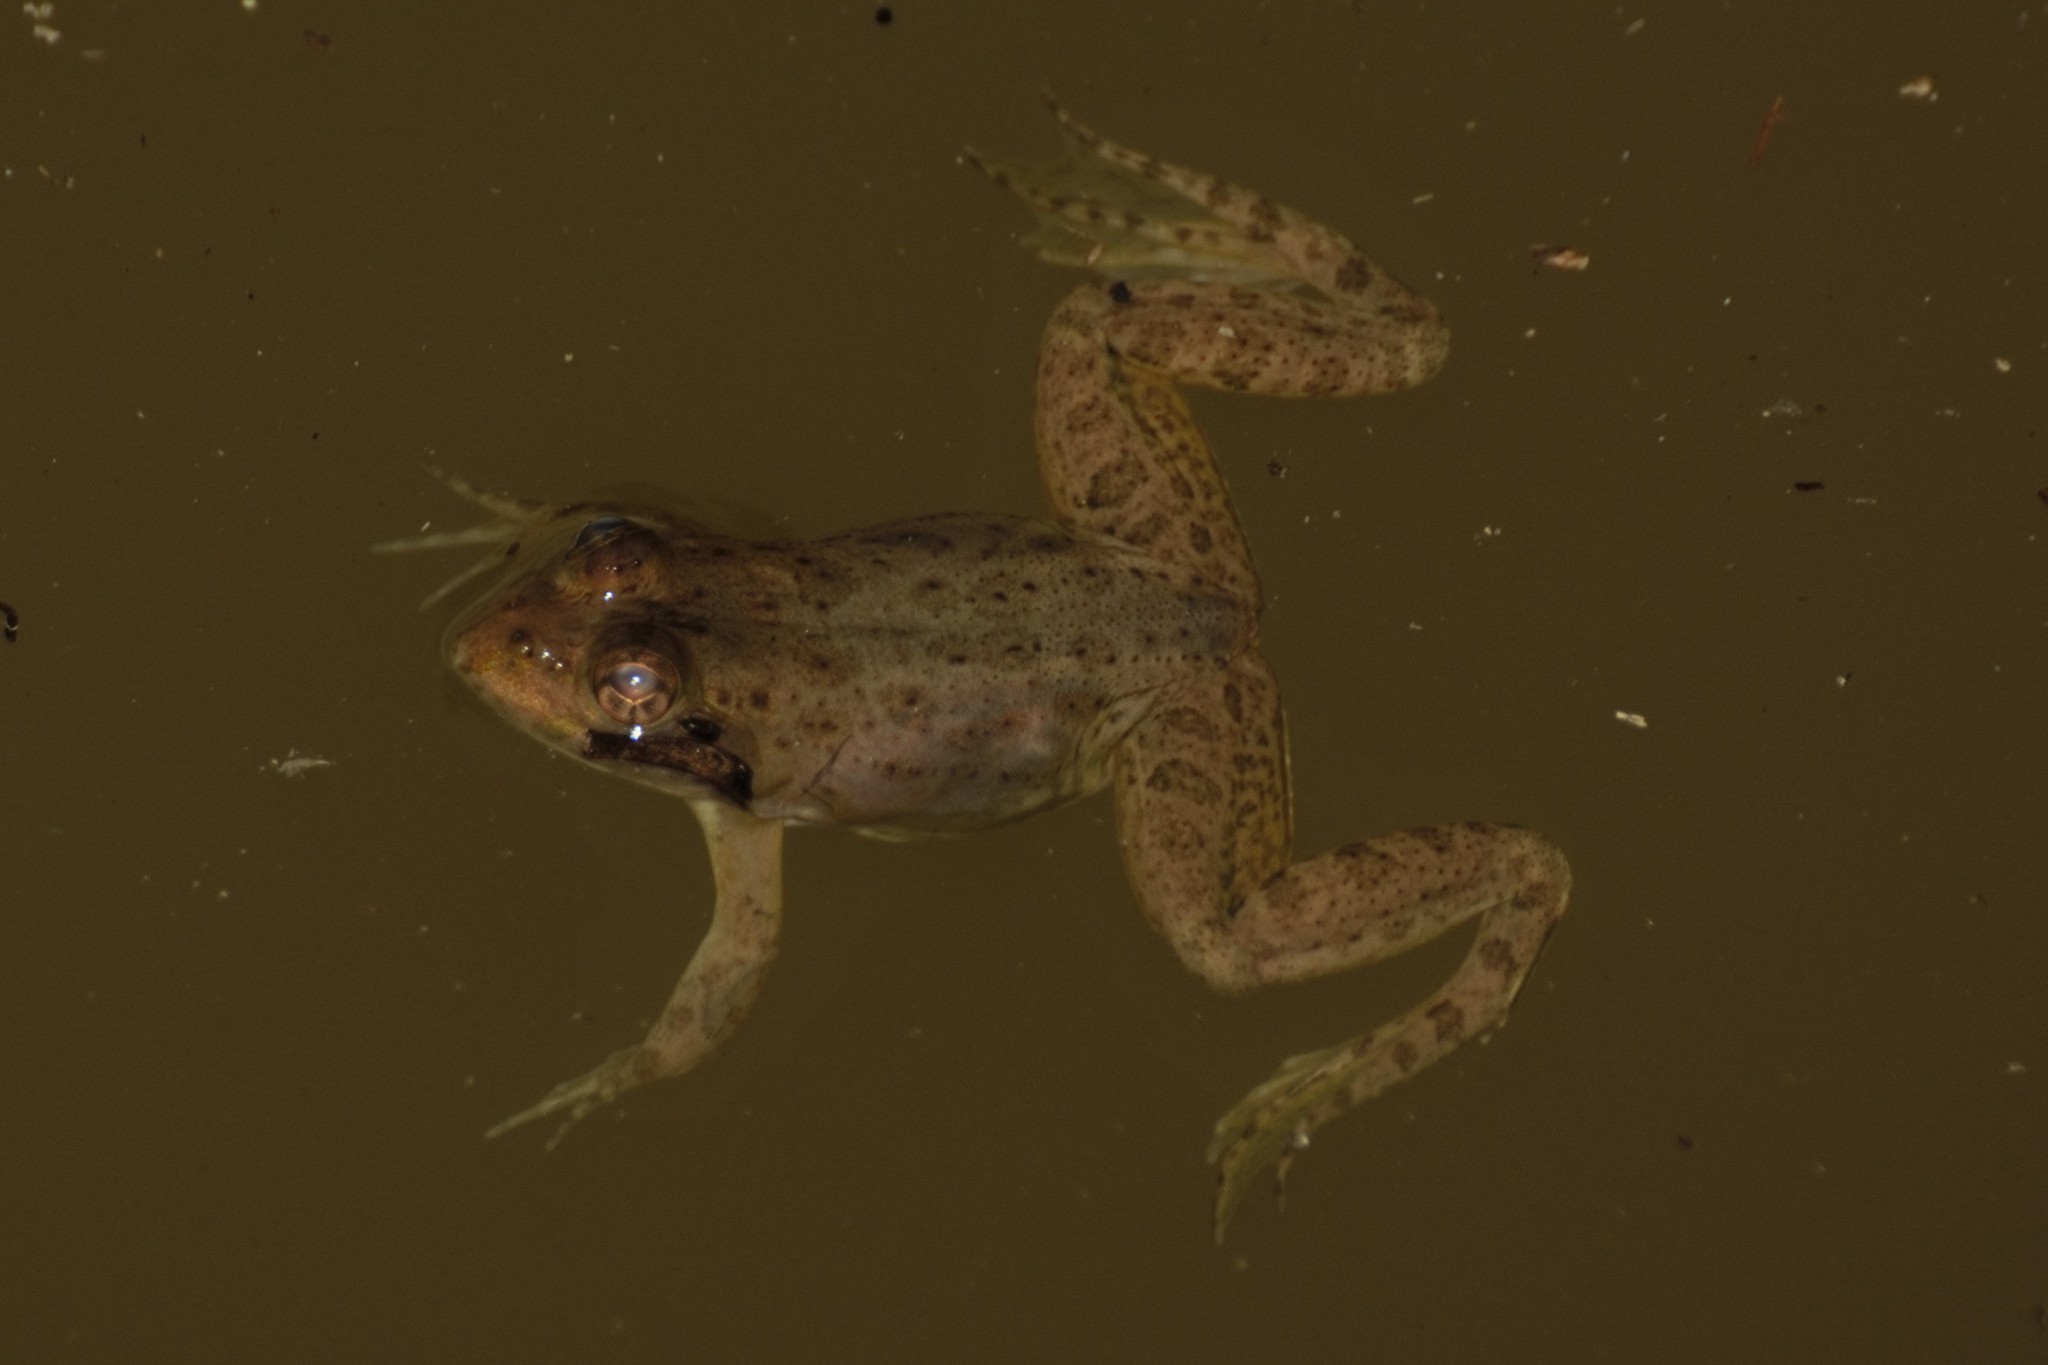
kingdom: Animalia
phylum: Chordata
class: Amphibia
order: Anura
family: Dicroglossidae
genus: Euphlyctis
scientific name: Euphlyctis cyanophlyctis
